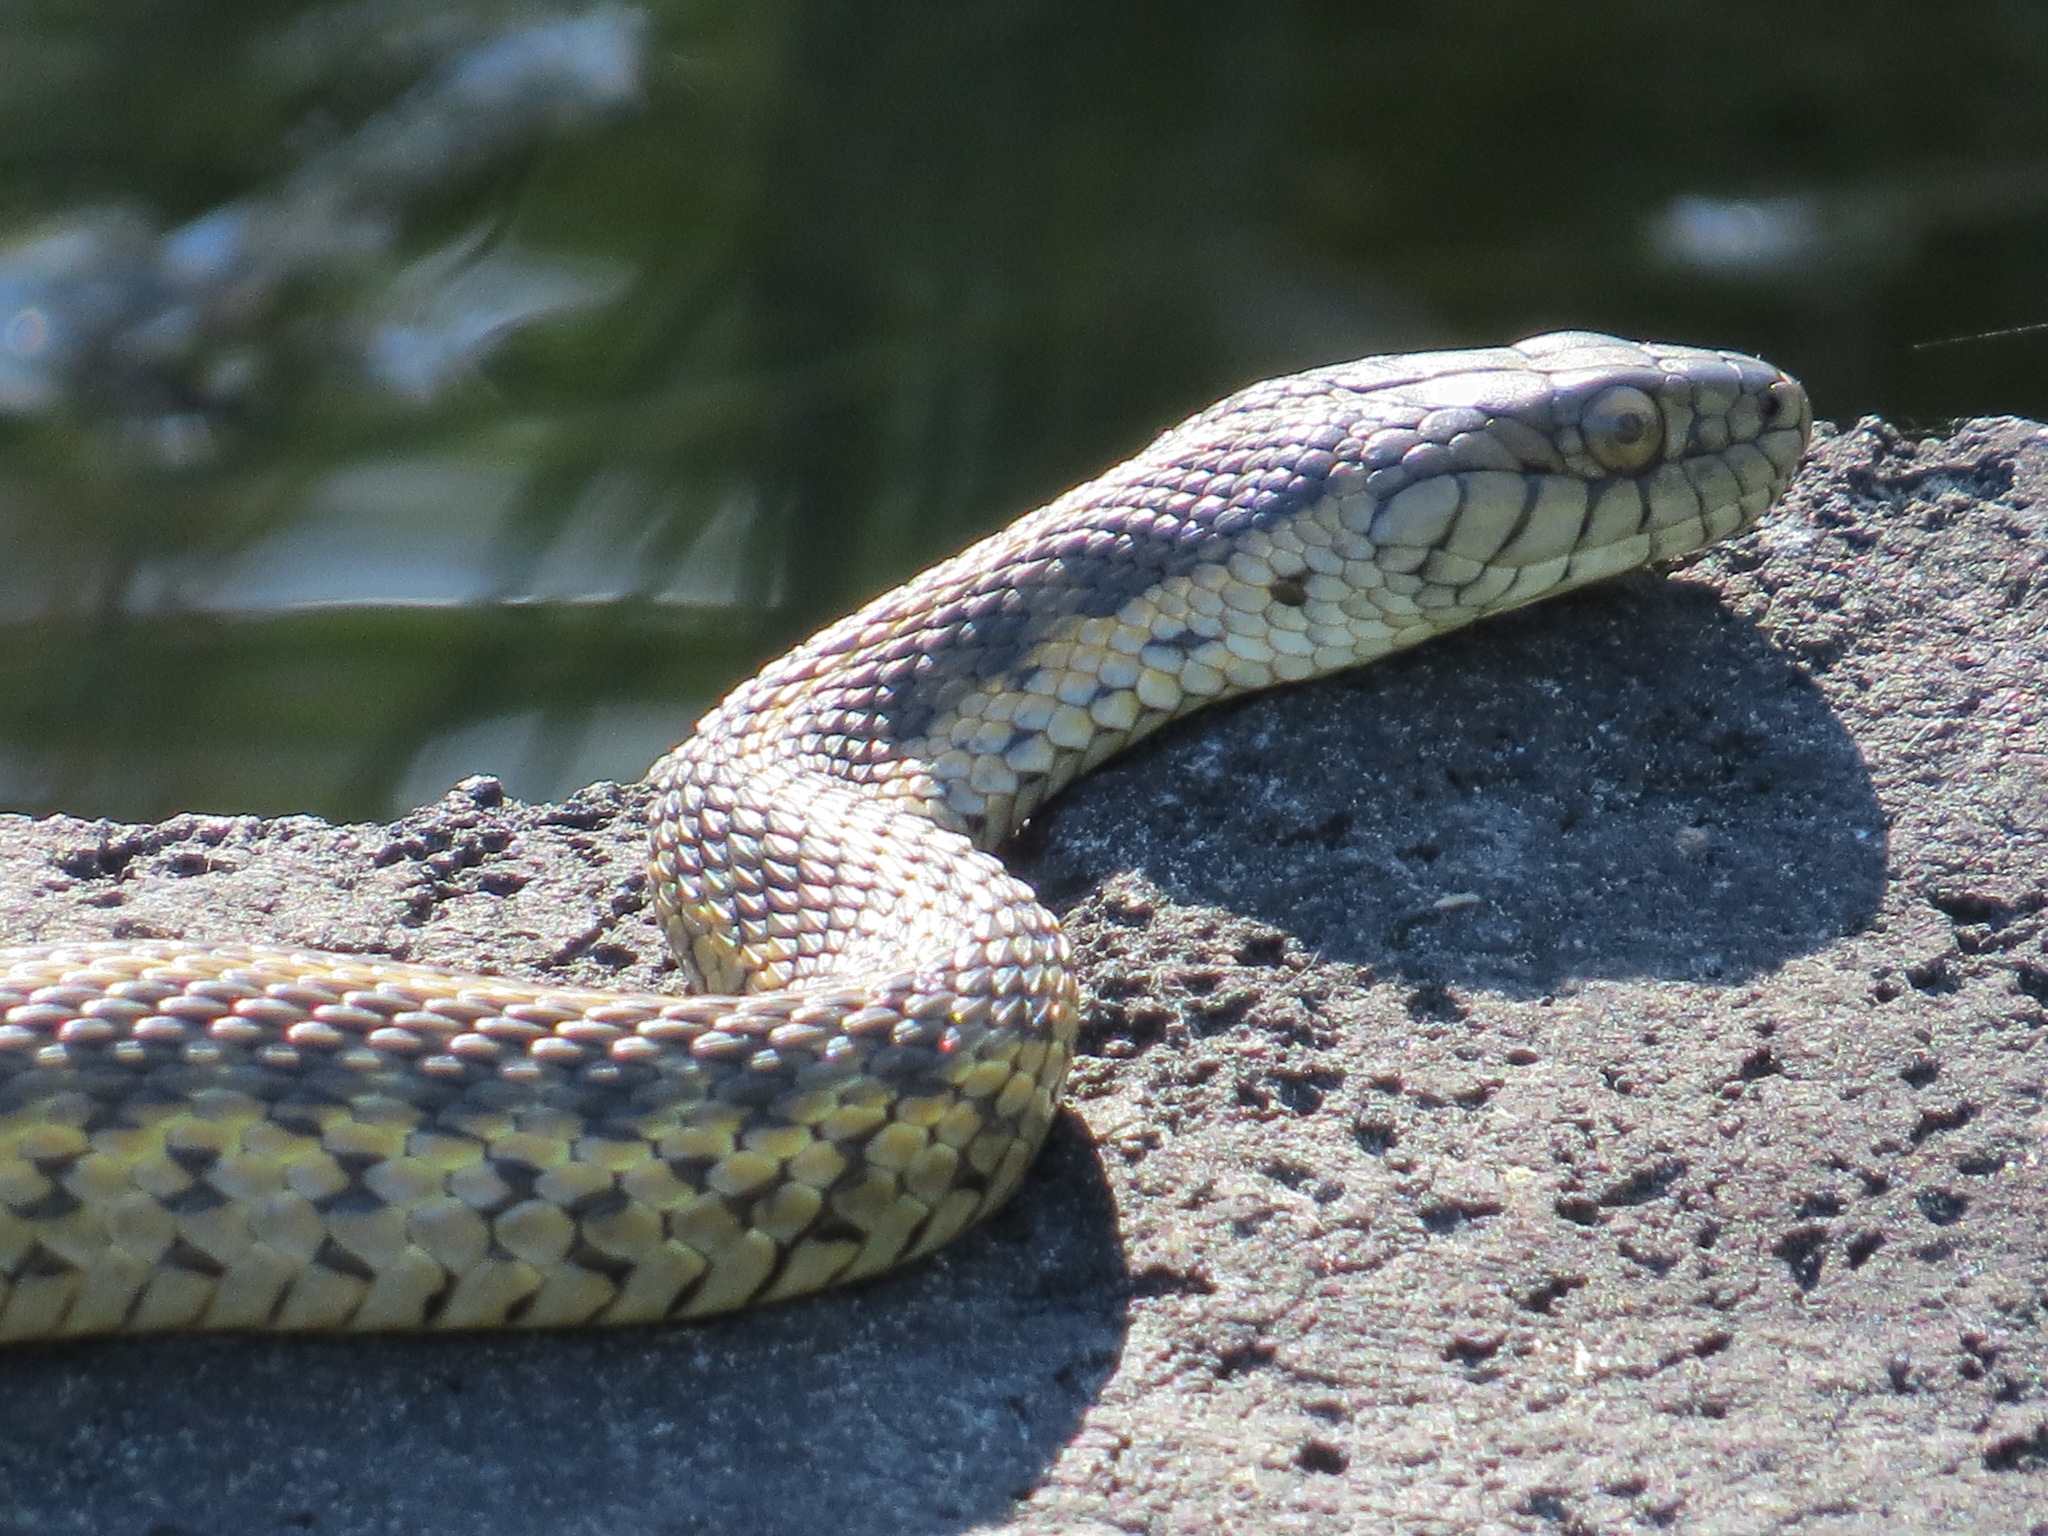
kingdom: Animalia
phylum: Chordata
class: Squamata
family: Colubridae
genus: Thamnophis
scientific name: Thamnophis atratus
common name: Pacific coast aquatic garter snake
